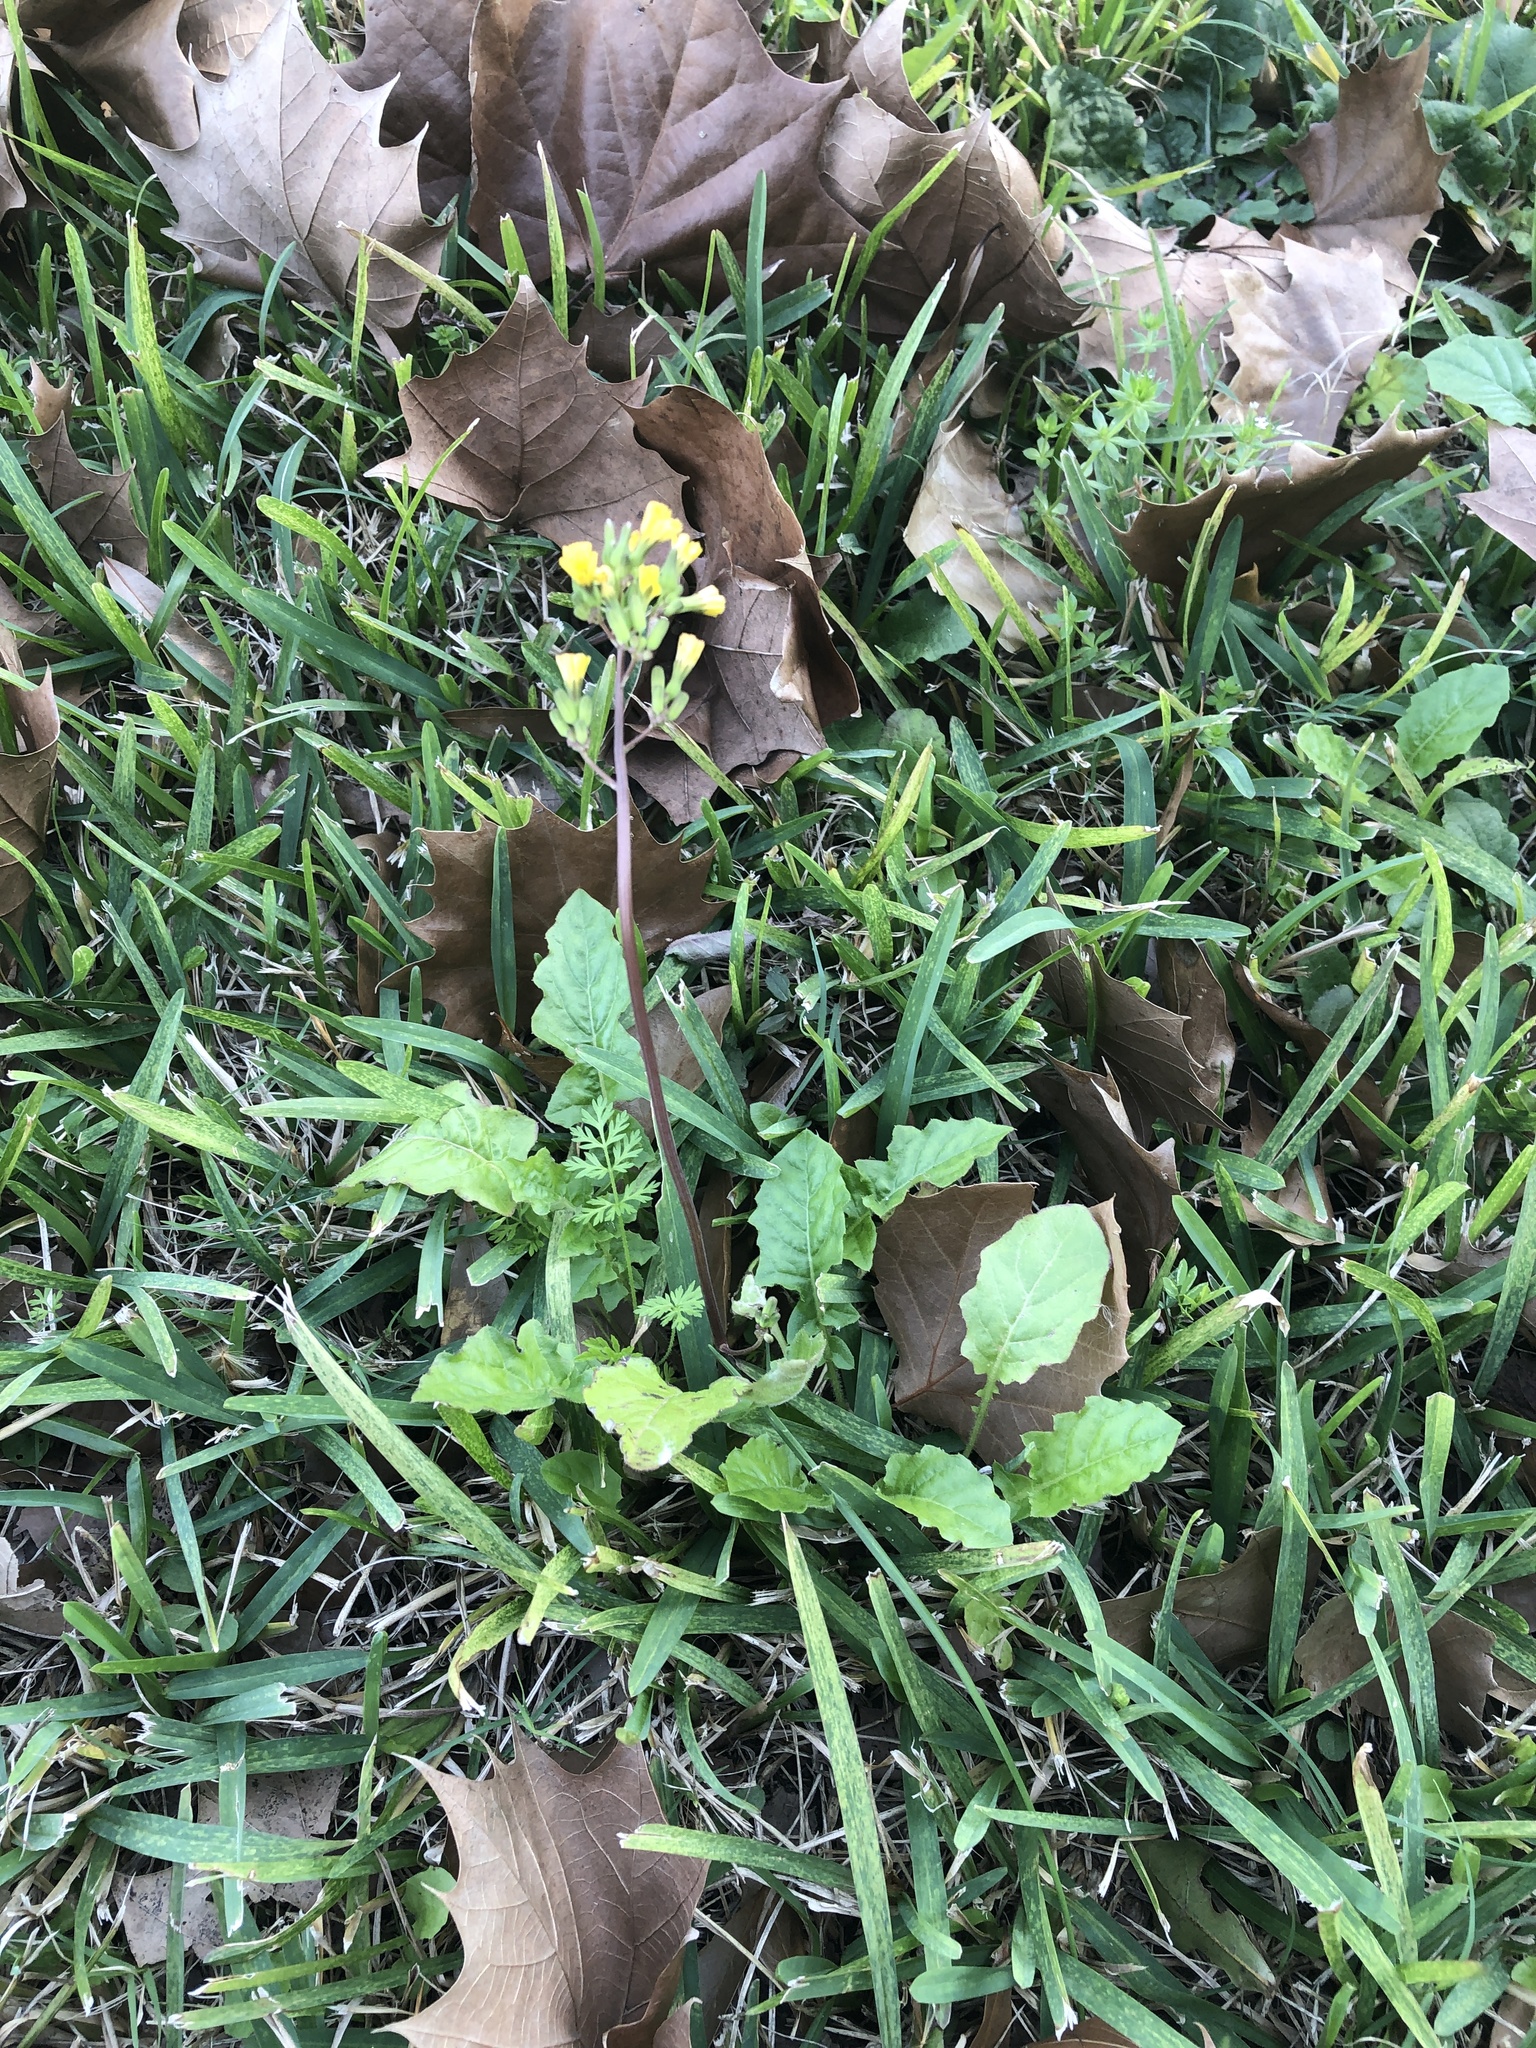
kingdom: Plantae
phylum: Tracheophyta
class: Magnoliopsida
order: Asterales
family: Asteraceae
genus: Youngia
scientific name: Youngia japonica
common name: Oriental false hawksbeard
